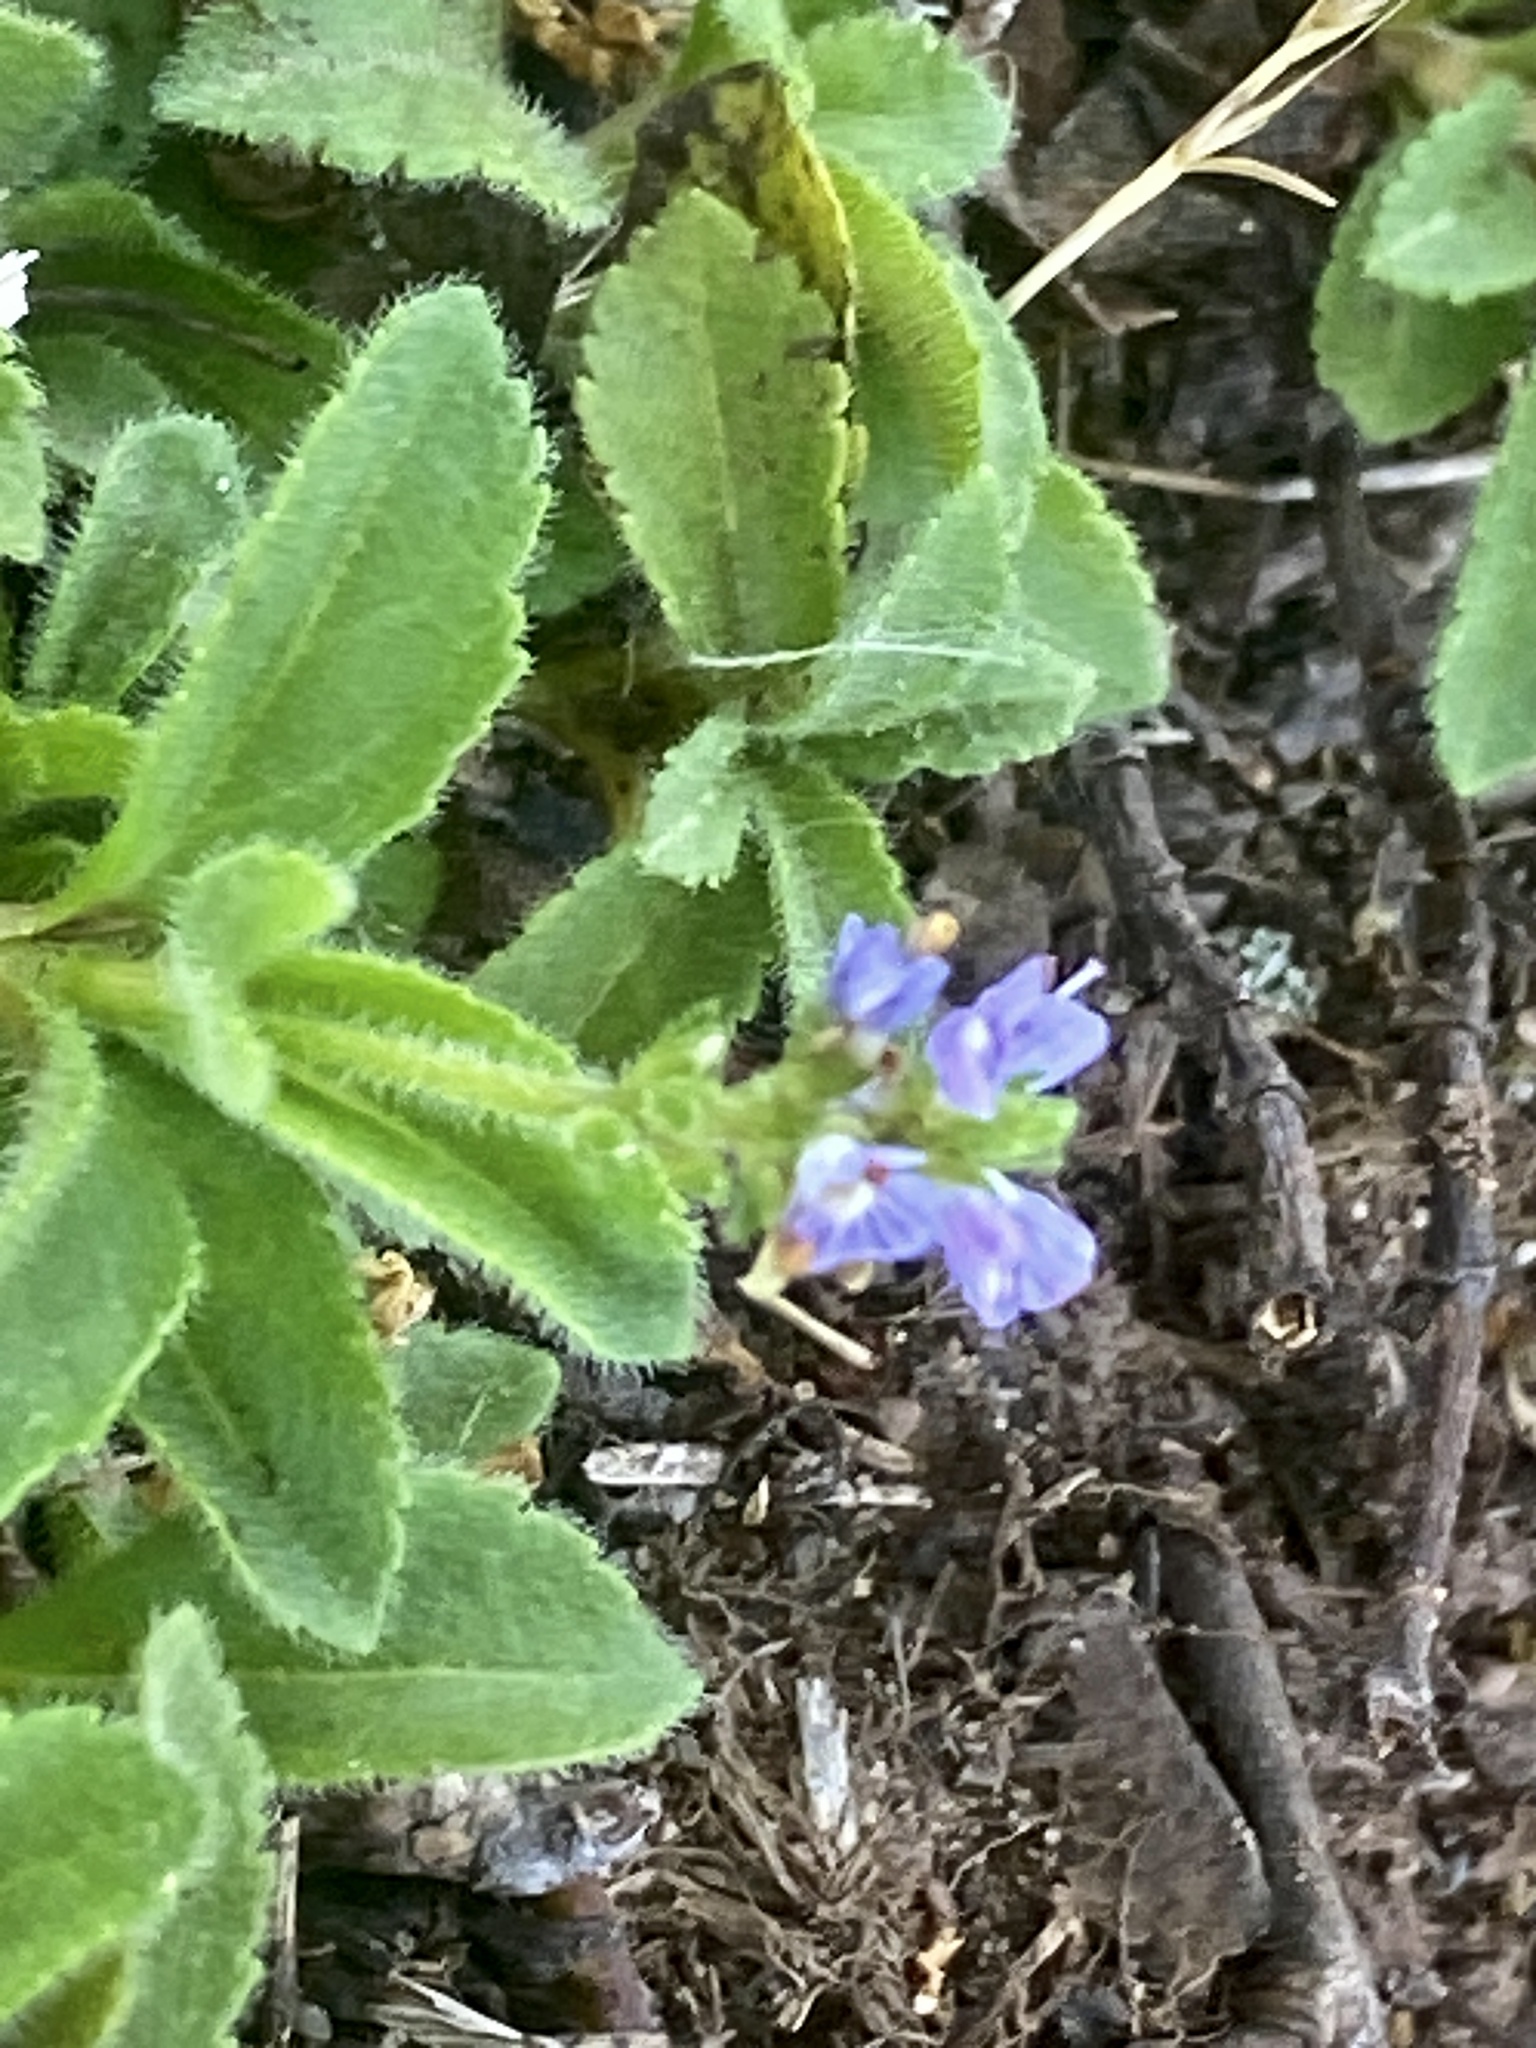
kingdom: Plantae
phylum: Tracheophyta
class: Magnoliopsida
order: Lamiales
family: Plantaginaceae
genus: Veronica
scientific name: Veronica officinalis
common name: Common speedwell
